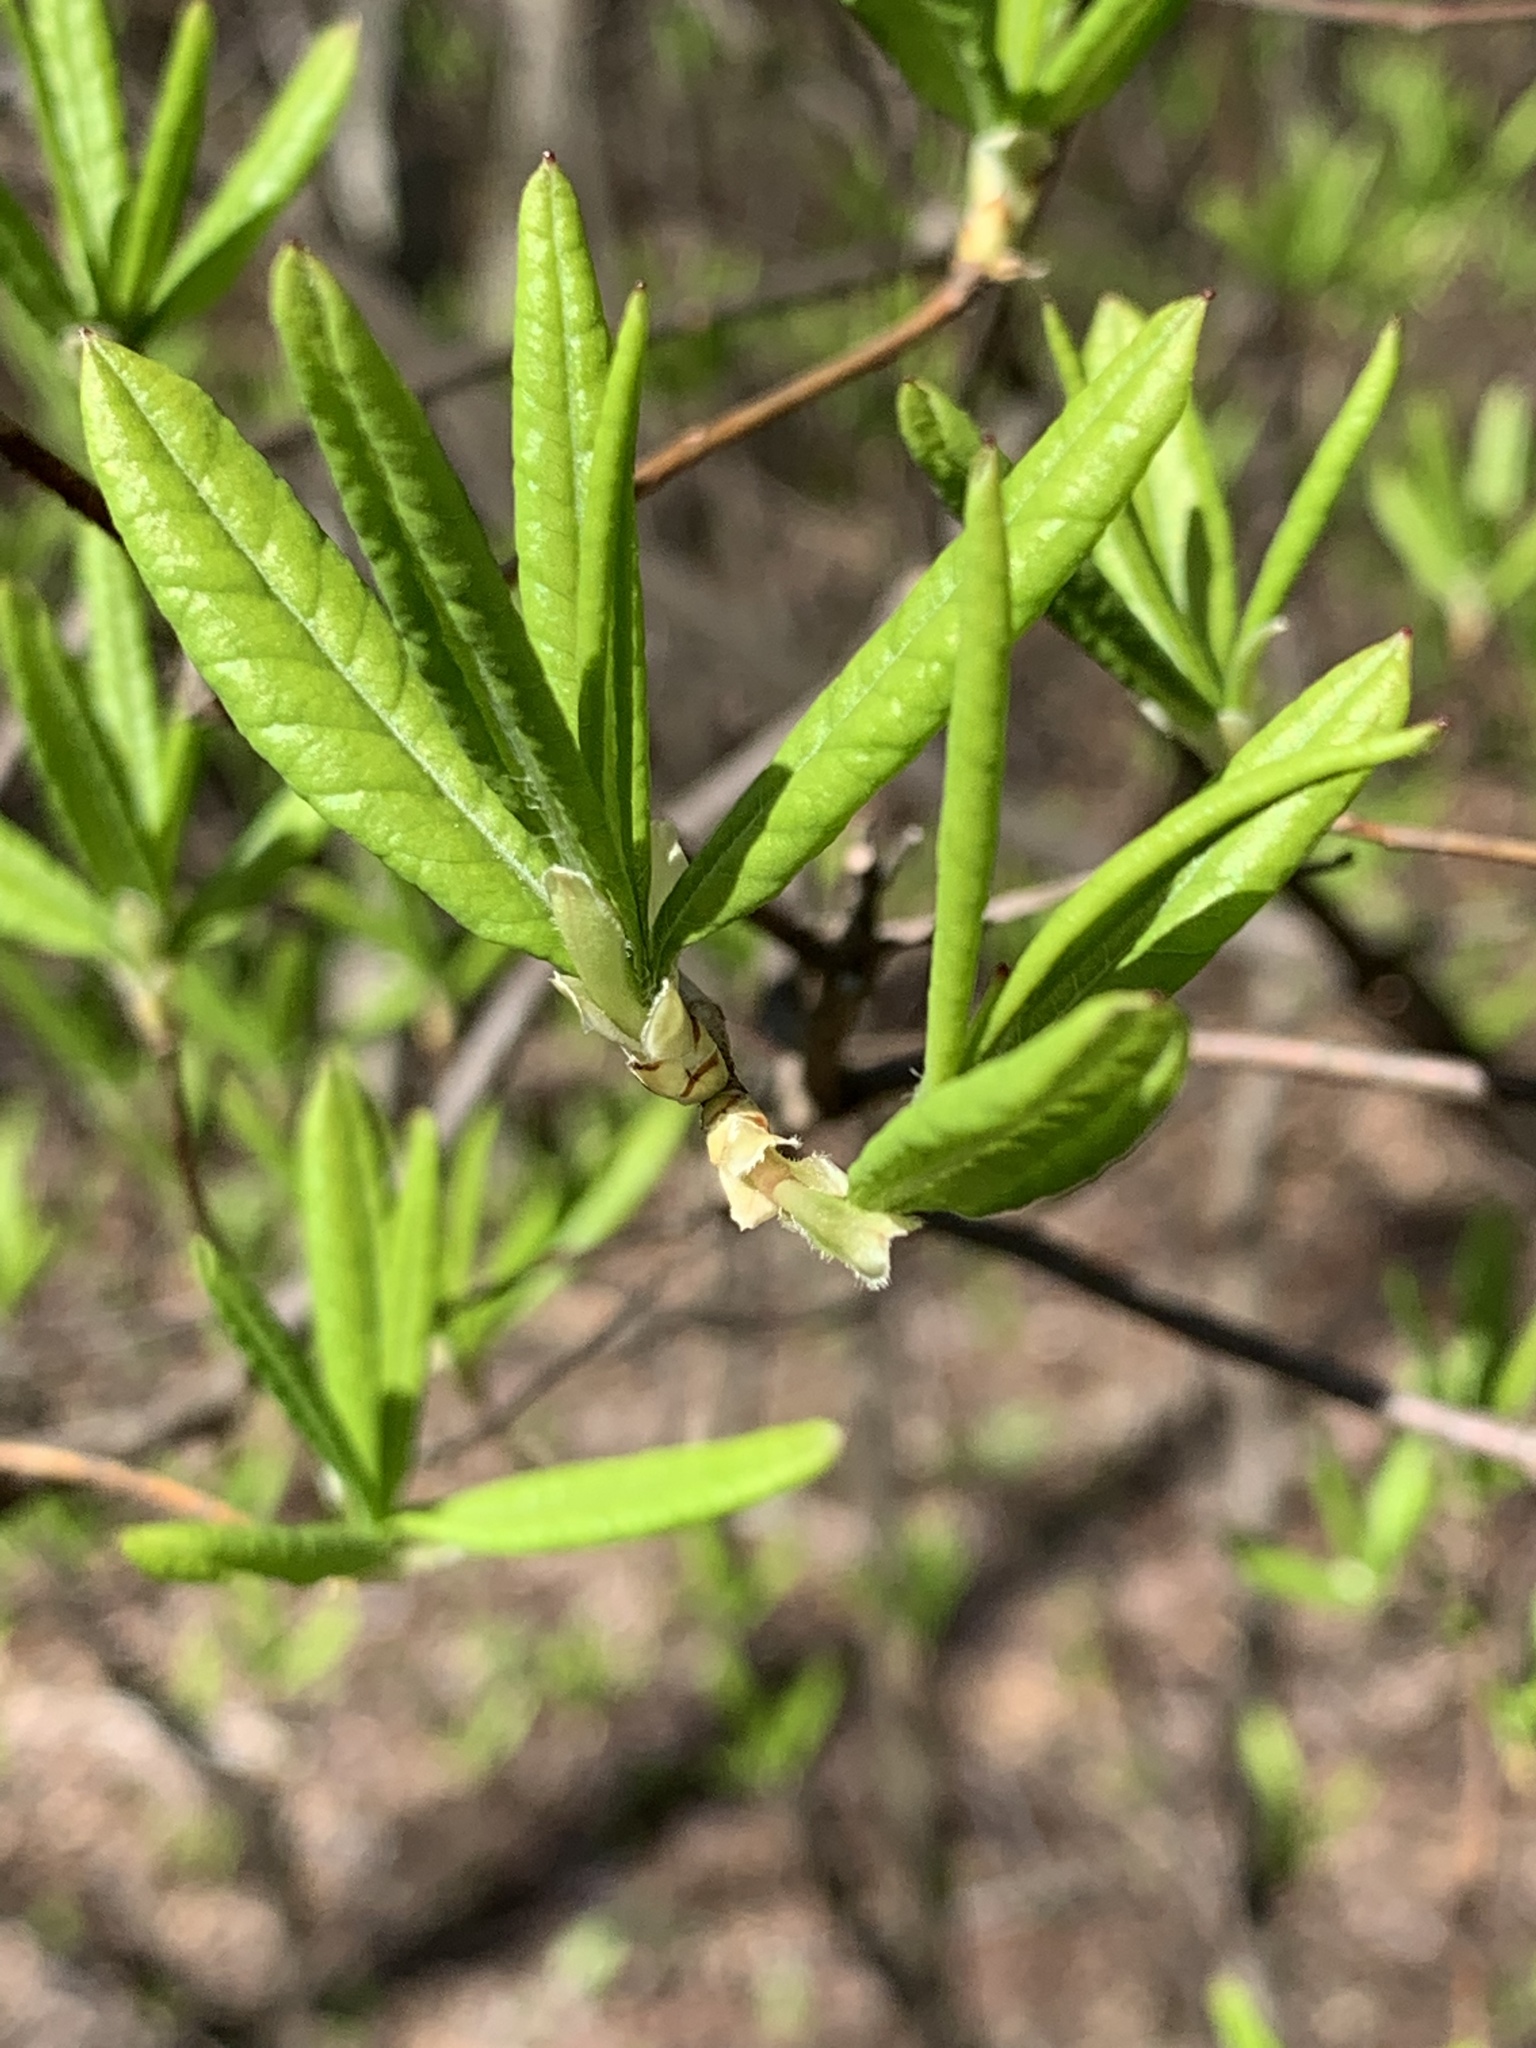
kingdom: Plantae
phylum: Tracheophyta
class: Magnoliopsida
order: Ericales
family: Ericaceae
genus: Rhododendron
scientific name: Rhododendron viscosum
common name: Clammy azalea
